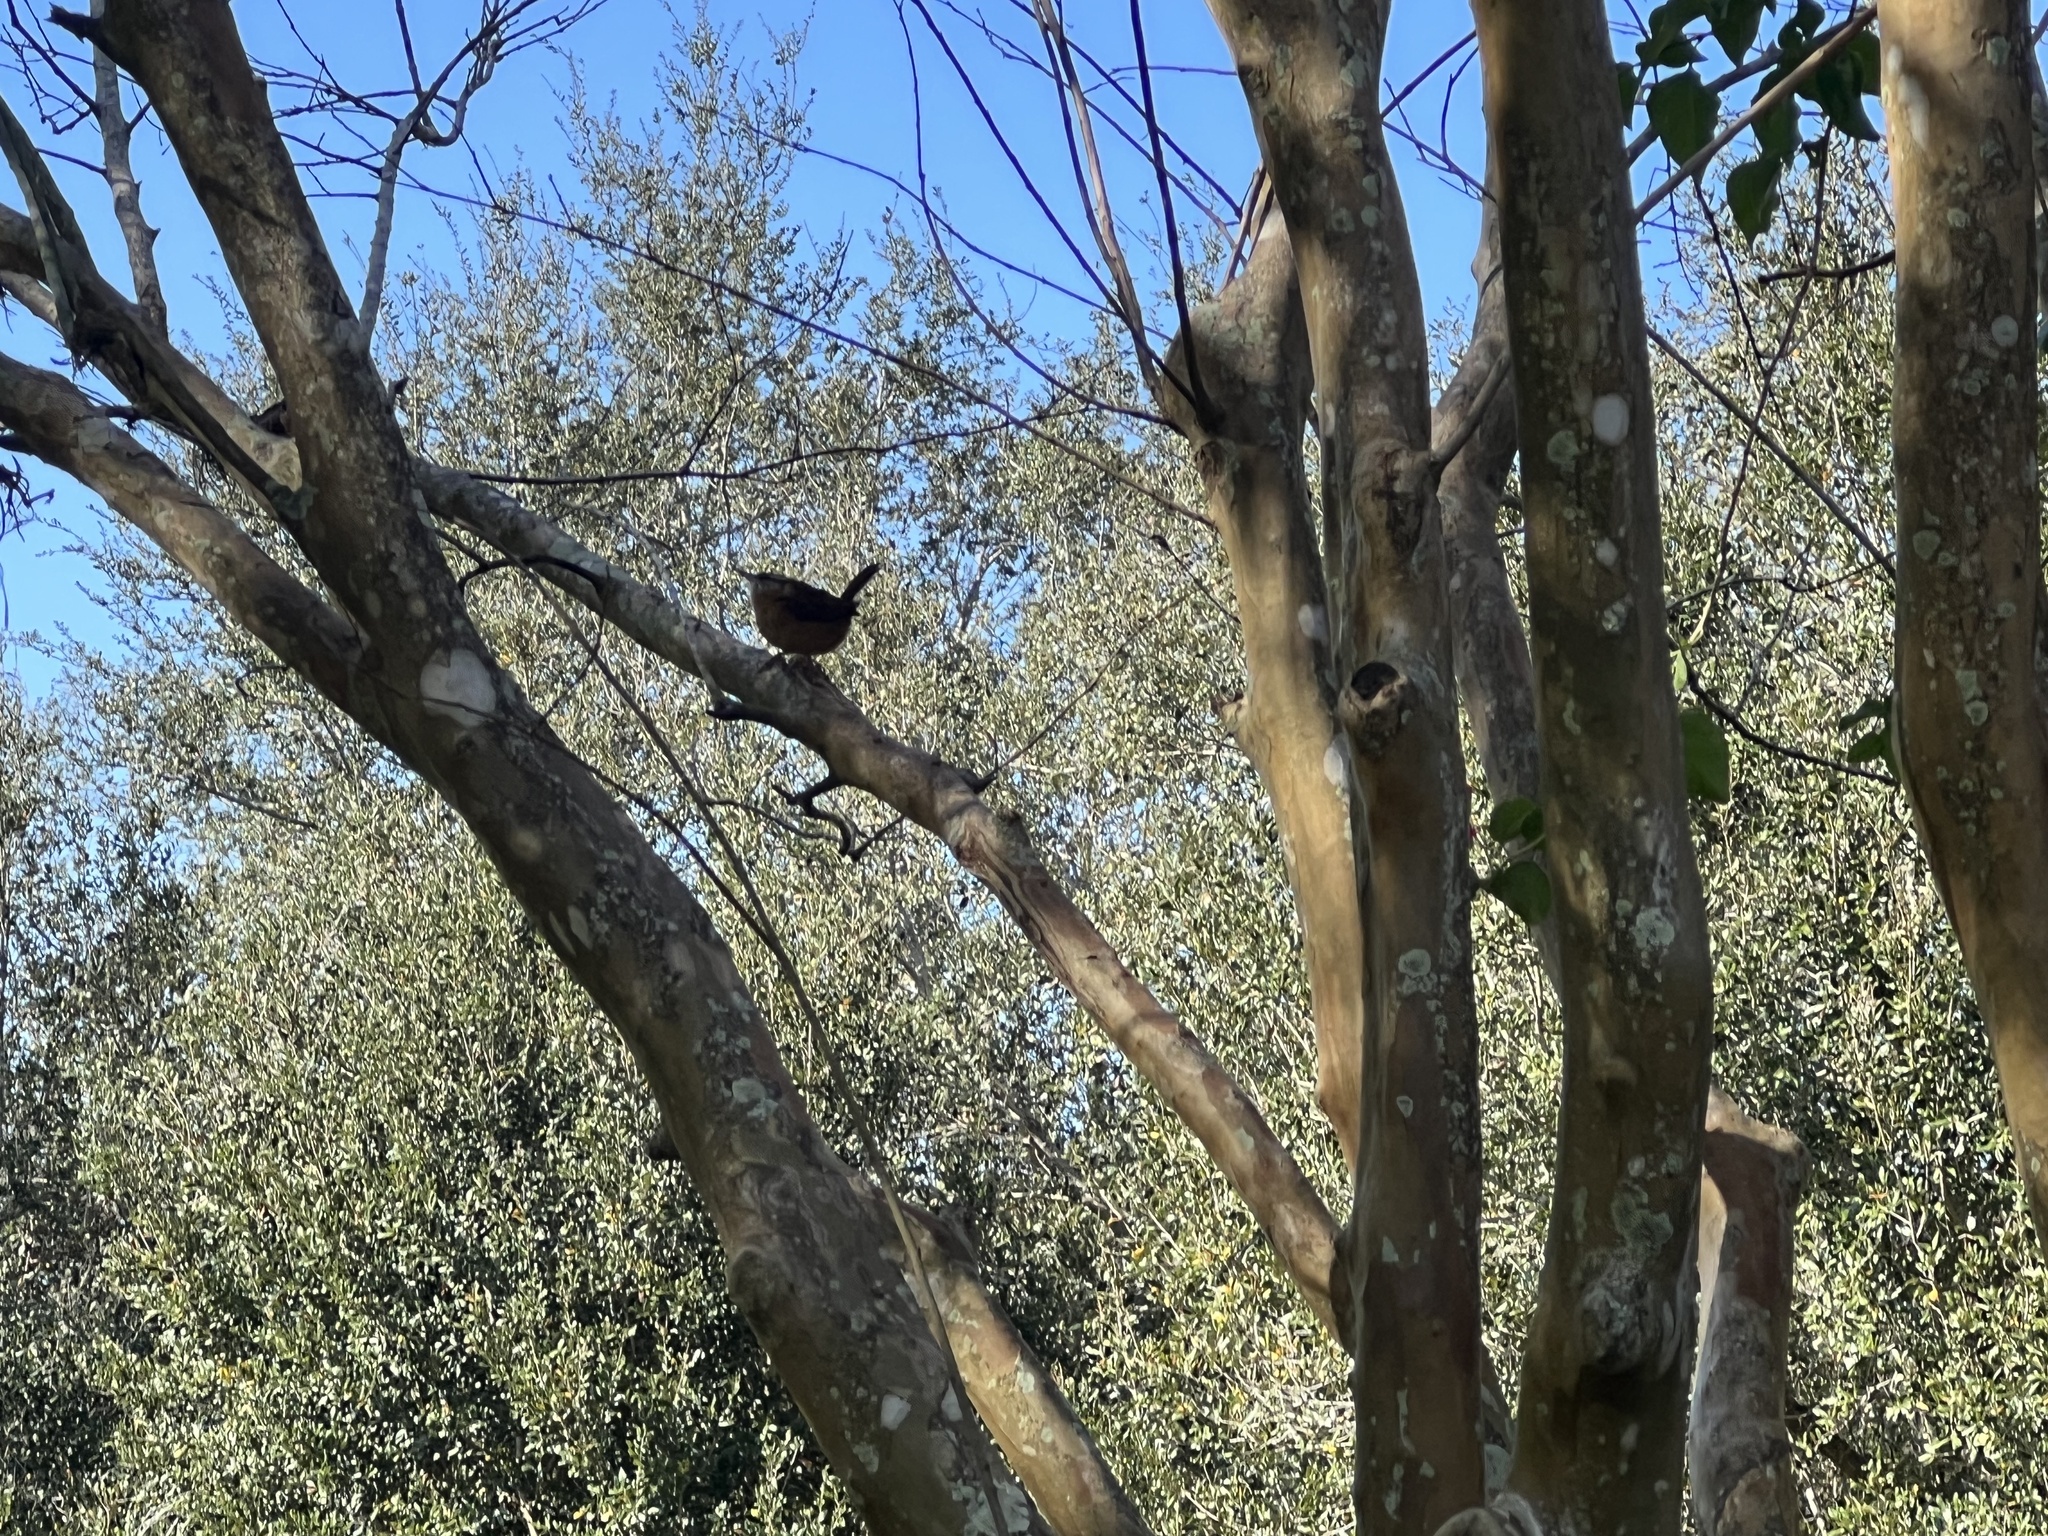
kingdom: Animalia
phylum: Chordata
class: Aves
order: Passeriformes
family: Troglodytidae
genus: Thryothorus
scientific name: Thryothorus ludovicianus
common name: Carolina wren
